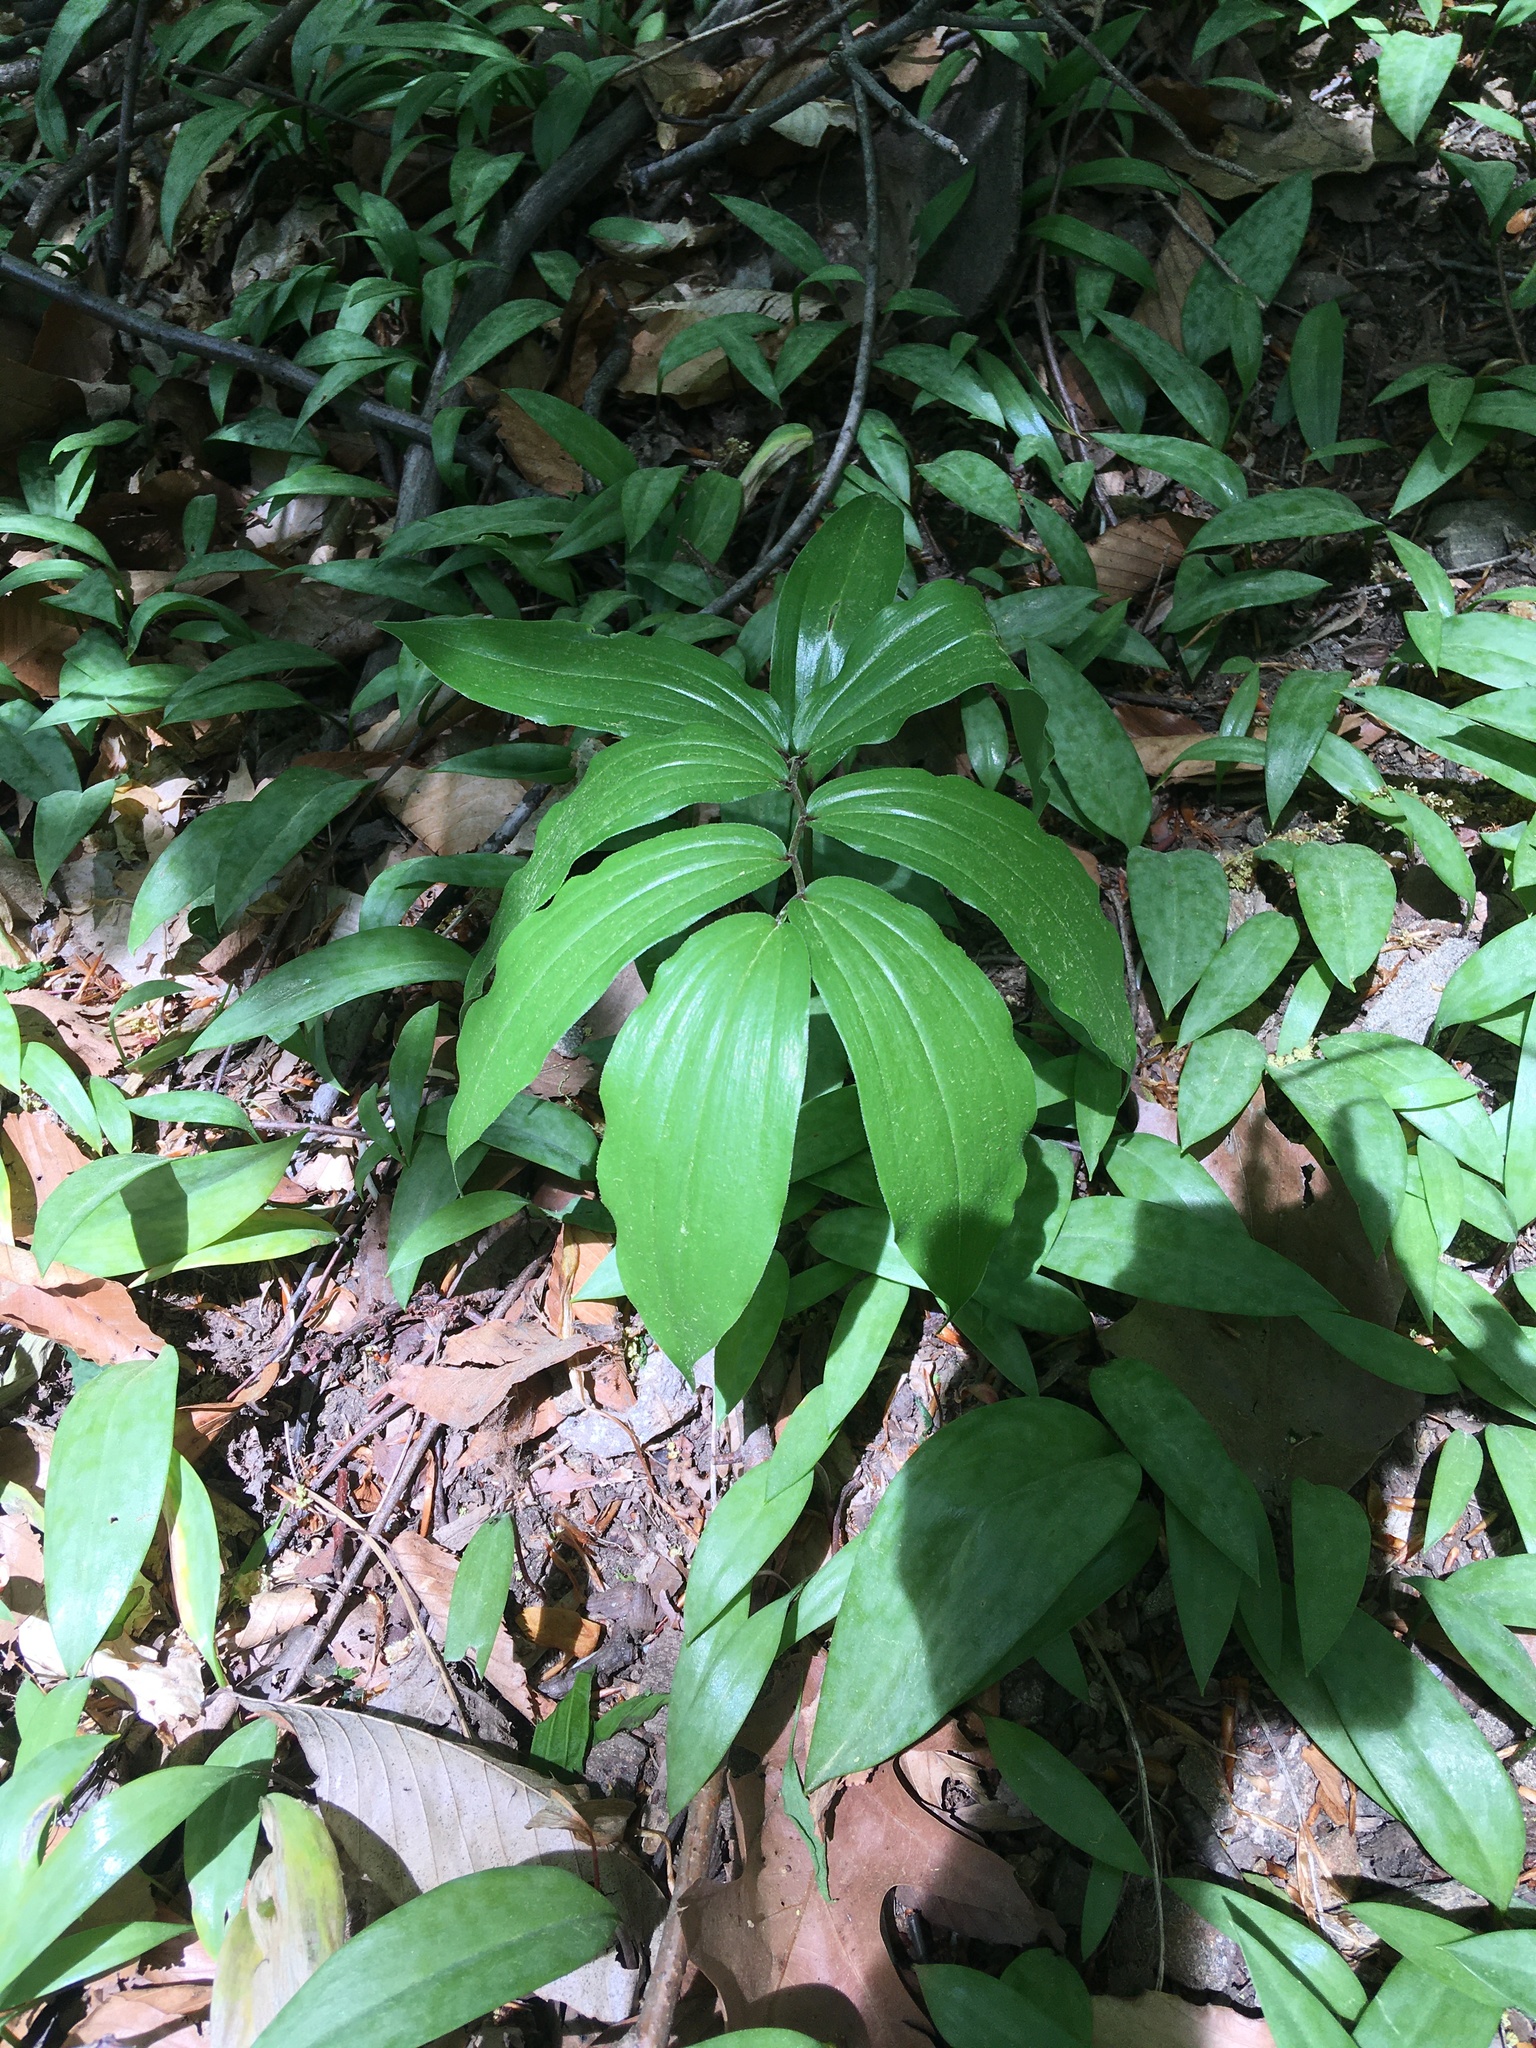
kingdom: Plantae
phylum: Tracheophyta
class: Liliopsida
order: Asparagales
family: Asparagaceae
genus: Maianthemum
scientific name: Maianthemum racemosum
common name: False spikenard
